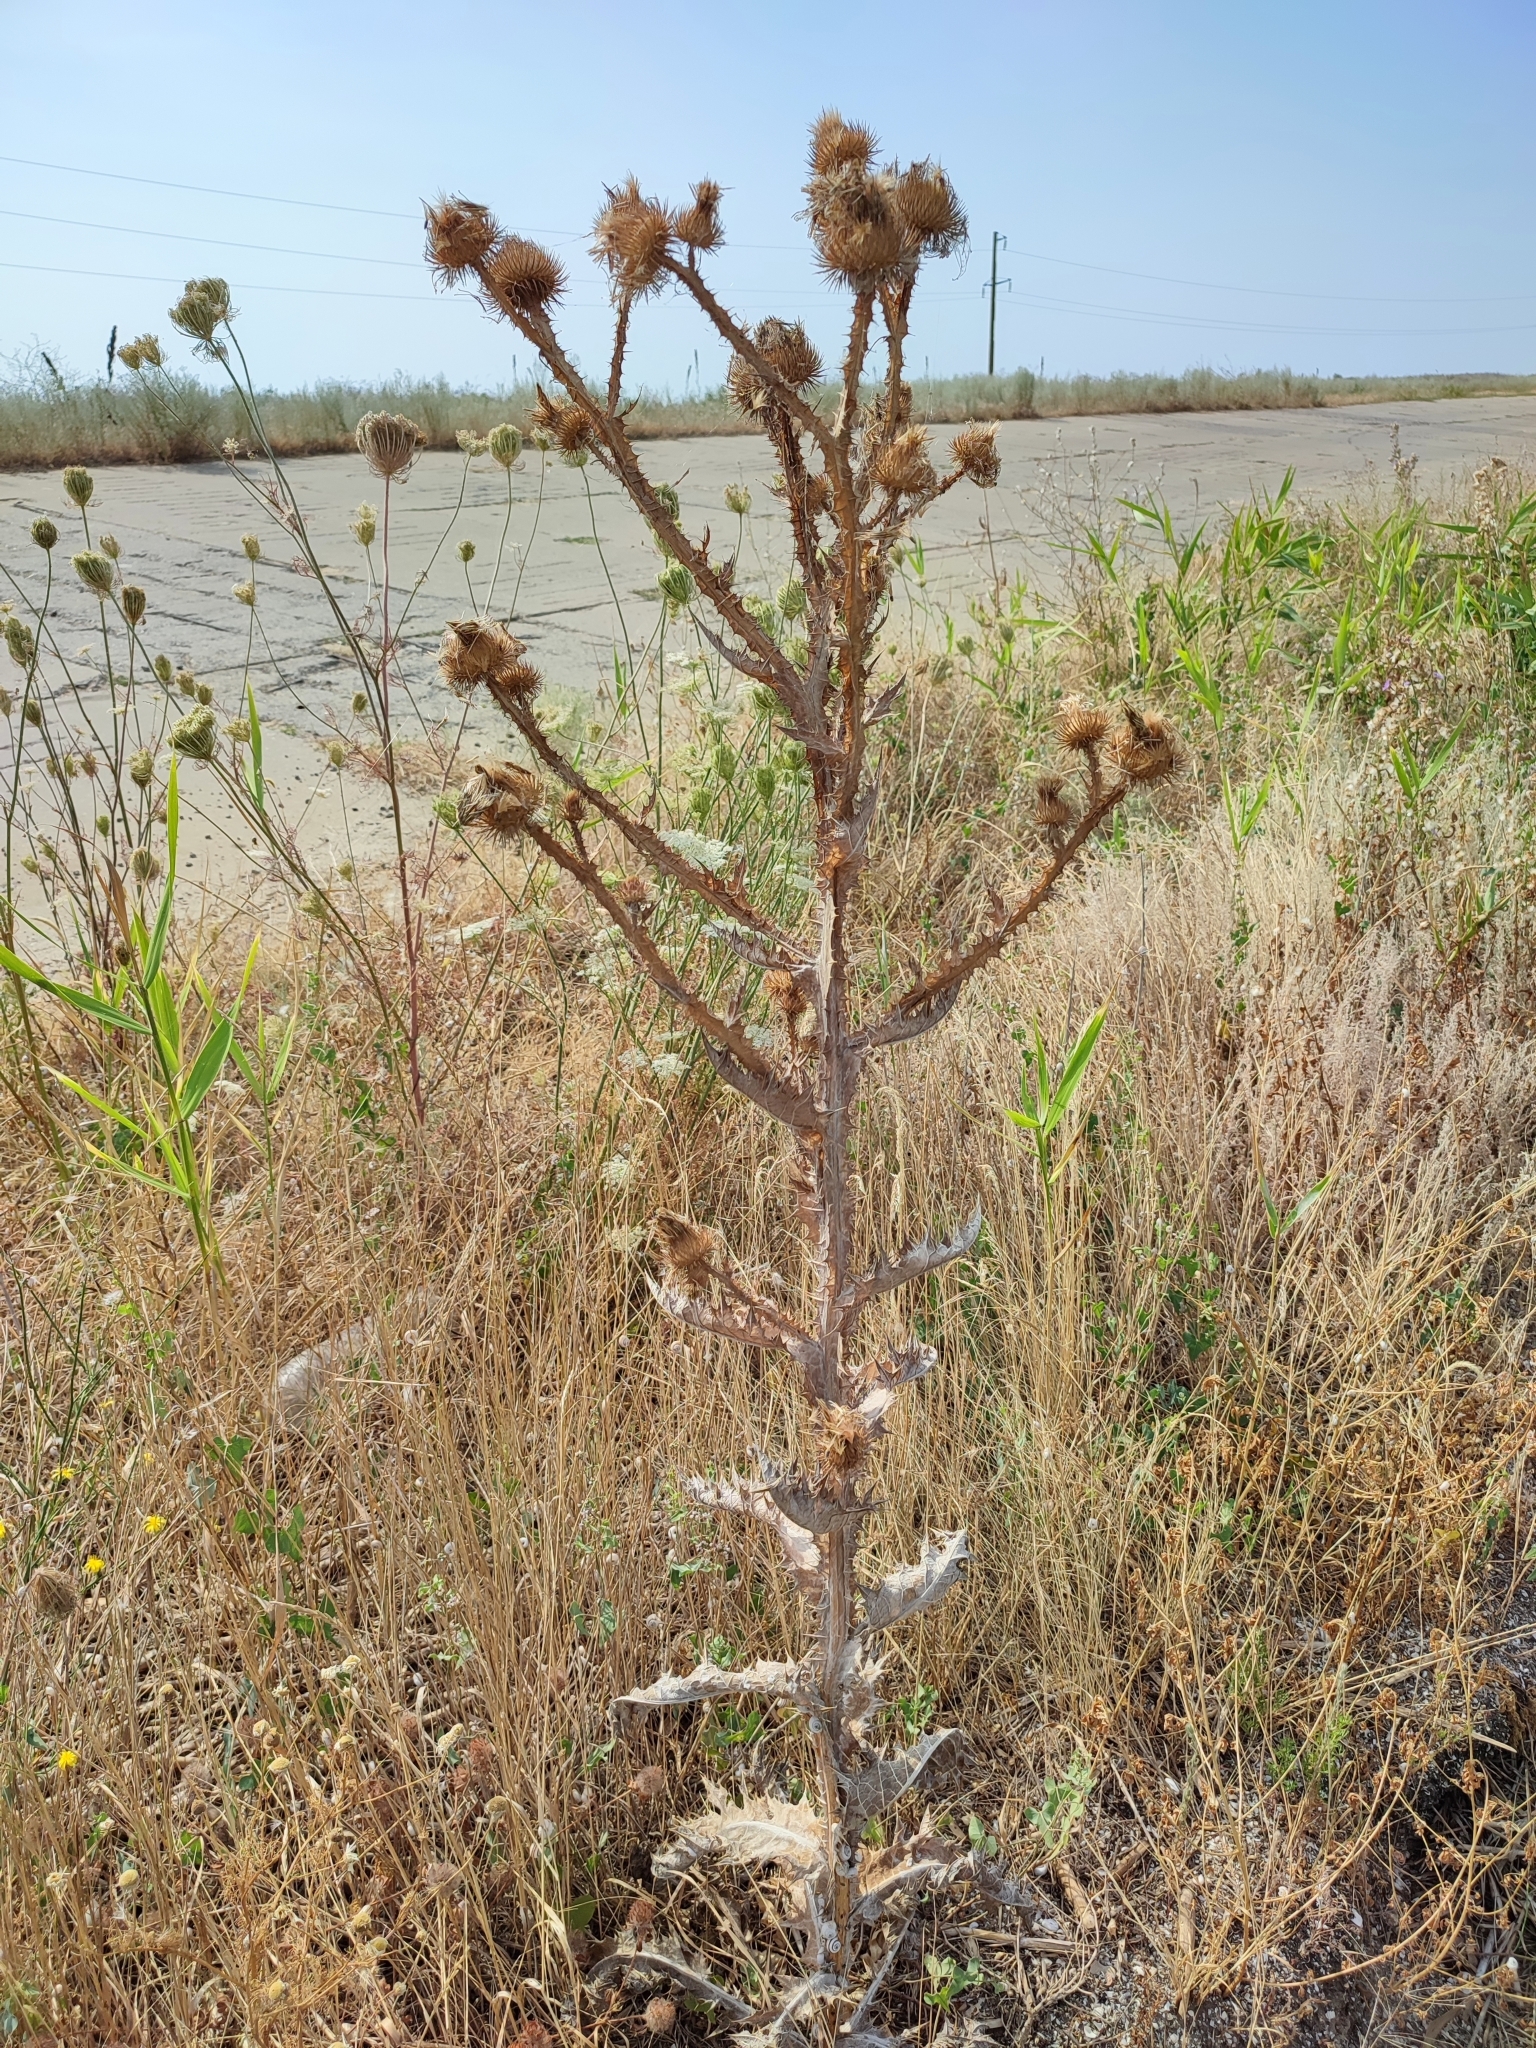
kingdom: Plantae
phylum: Tracheophyta
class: Magnoliopsida
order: Asterales
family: Asteraceae
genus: Onopordum
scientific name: Onopordum acanthium
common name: Scotch thistle
